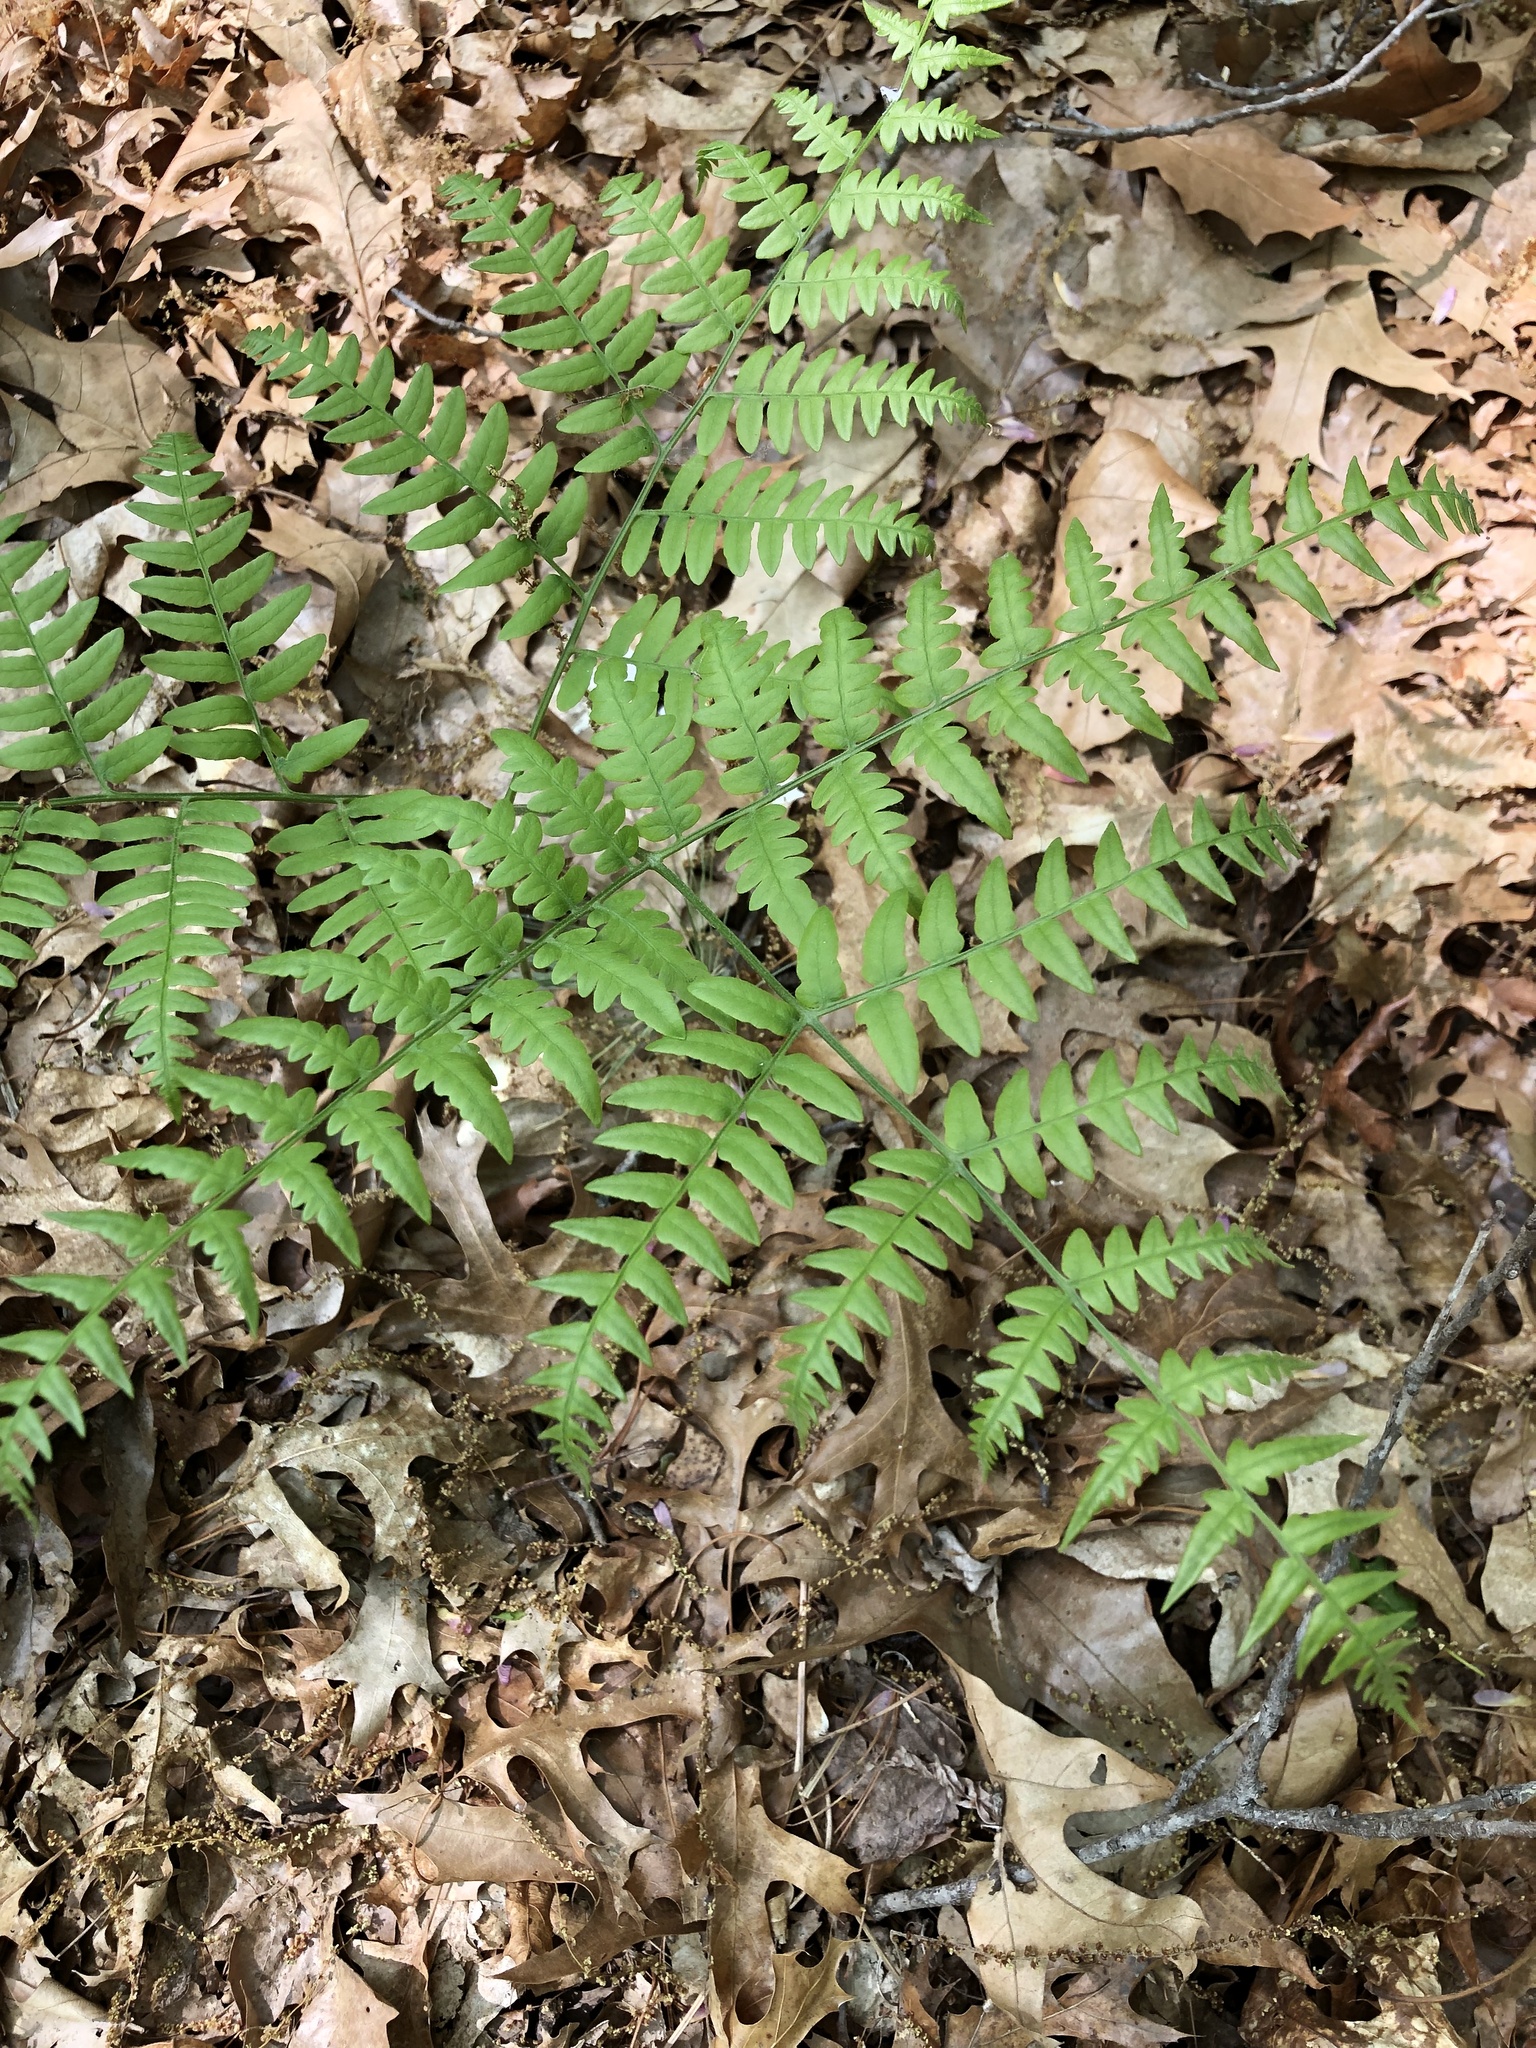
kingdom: Plantae
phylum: Tracheophyta
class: Polypodiopsida
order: Polypodiales
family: Dennstaedtiaceae
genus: Pteridium
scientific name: Pteridium aquilinum
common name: Bracken
